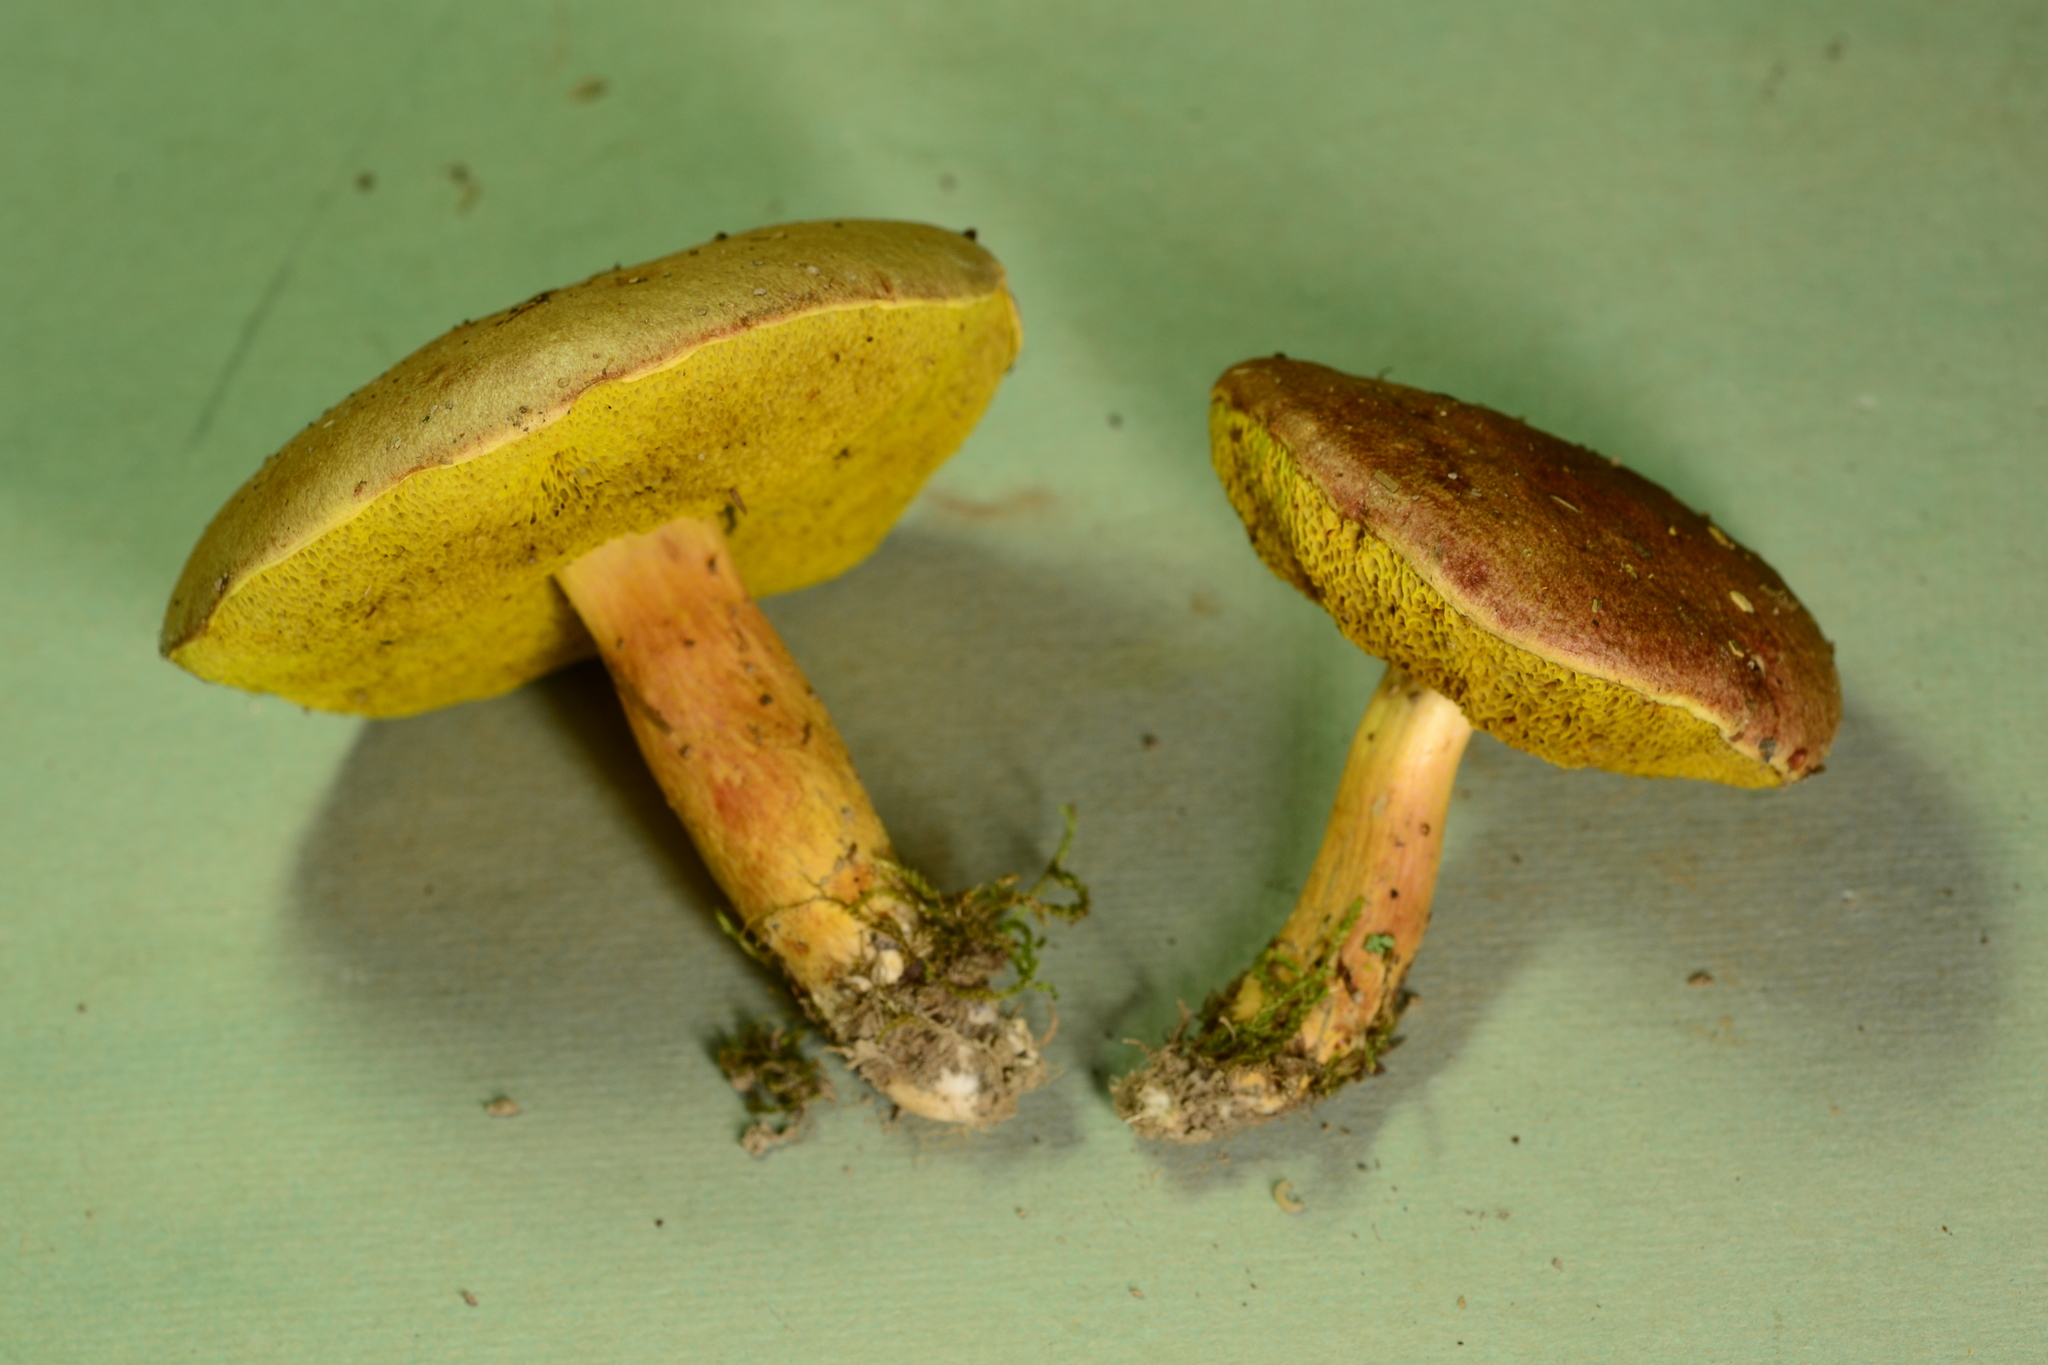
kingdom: Fungi
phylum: Basidiomycota
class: Agaricomycetes
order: Boletales
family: Boletaceae
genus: Aureoboletus
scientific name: Aureoboletus auriporus
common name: Sour gold-pored bolete
